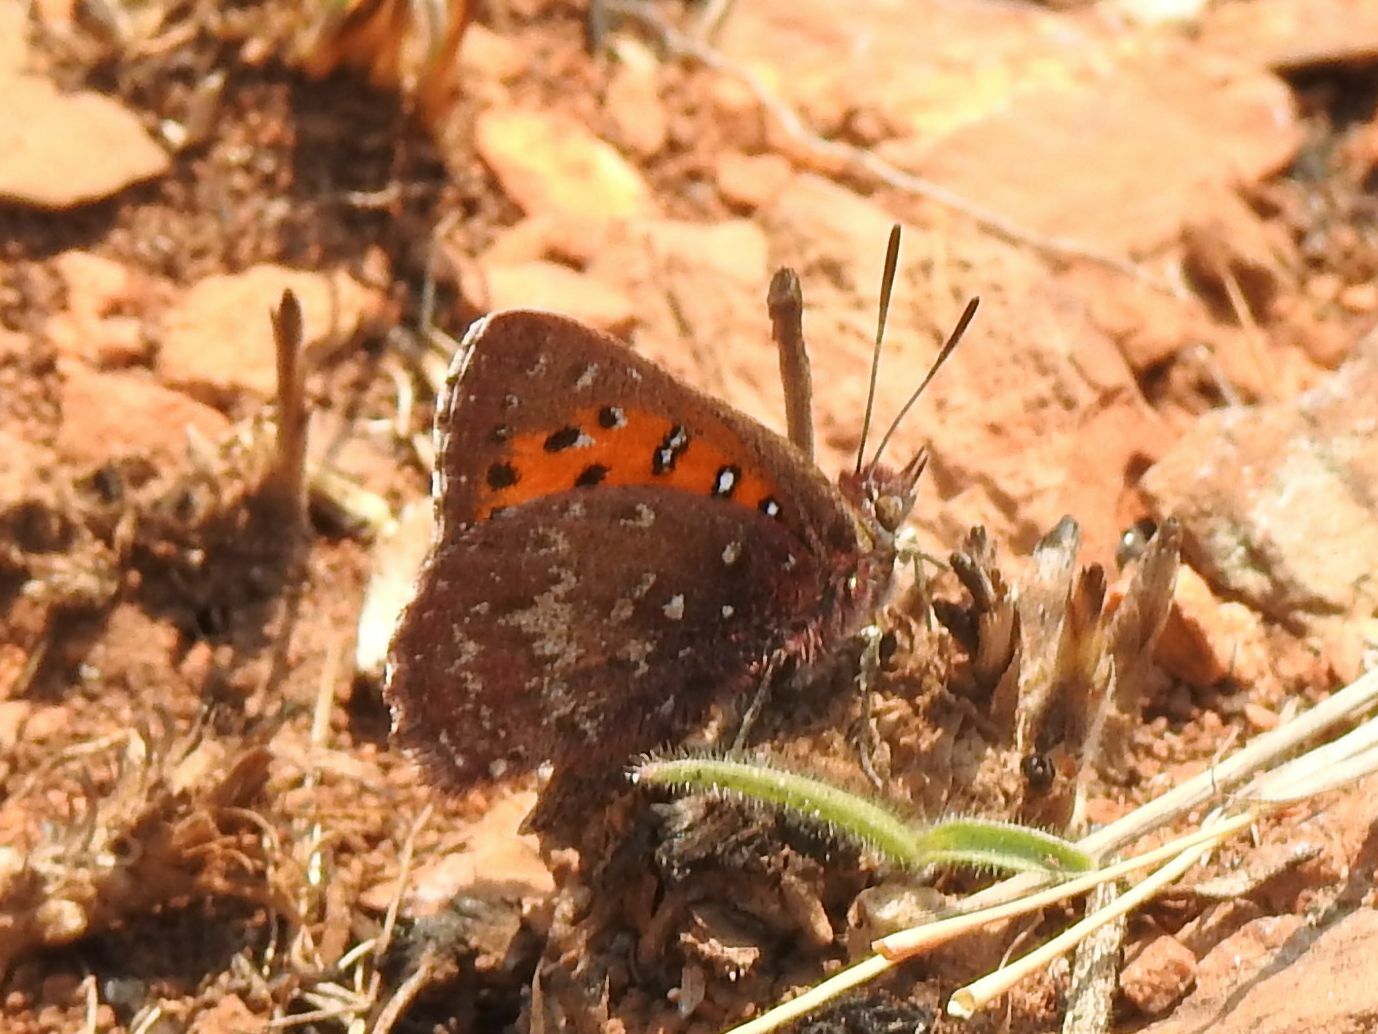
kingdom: Animalia
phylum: Arthropoda
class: Insecta
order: Lepidoptera
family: Lycaenidae
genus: Aloeides
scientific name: Aloeides dryas
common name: Transvaal copper
